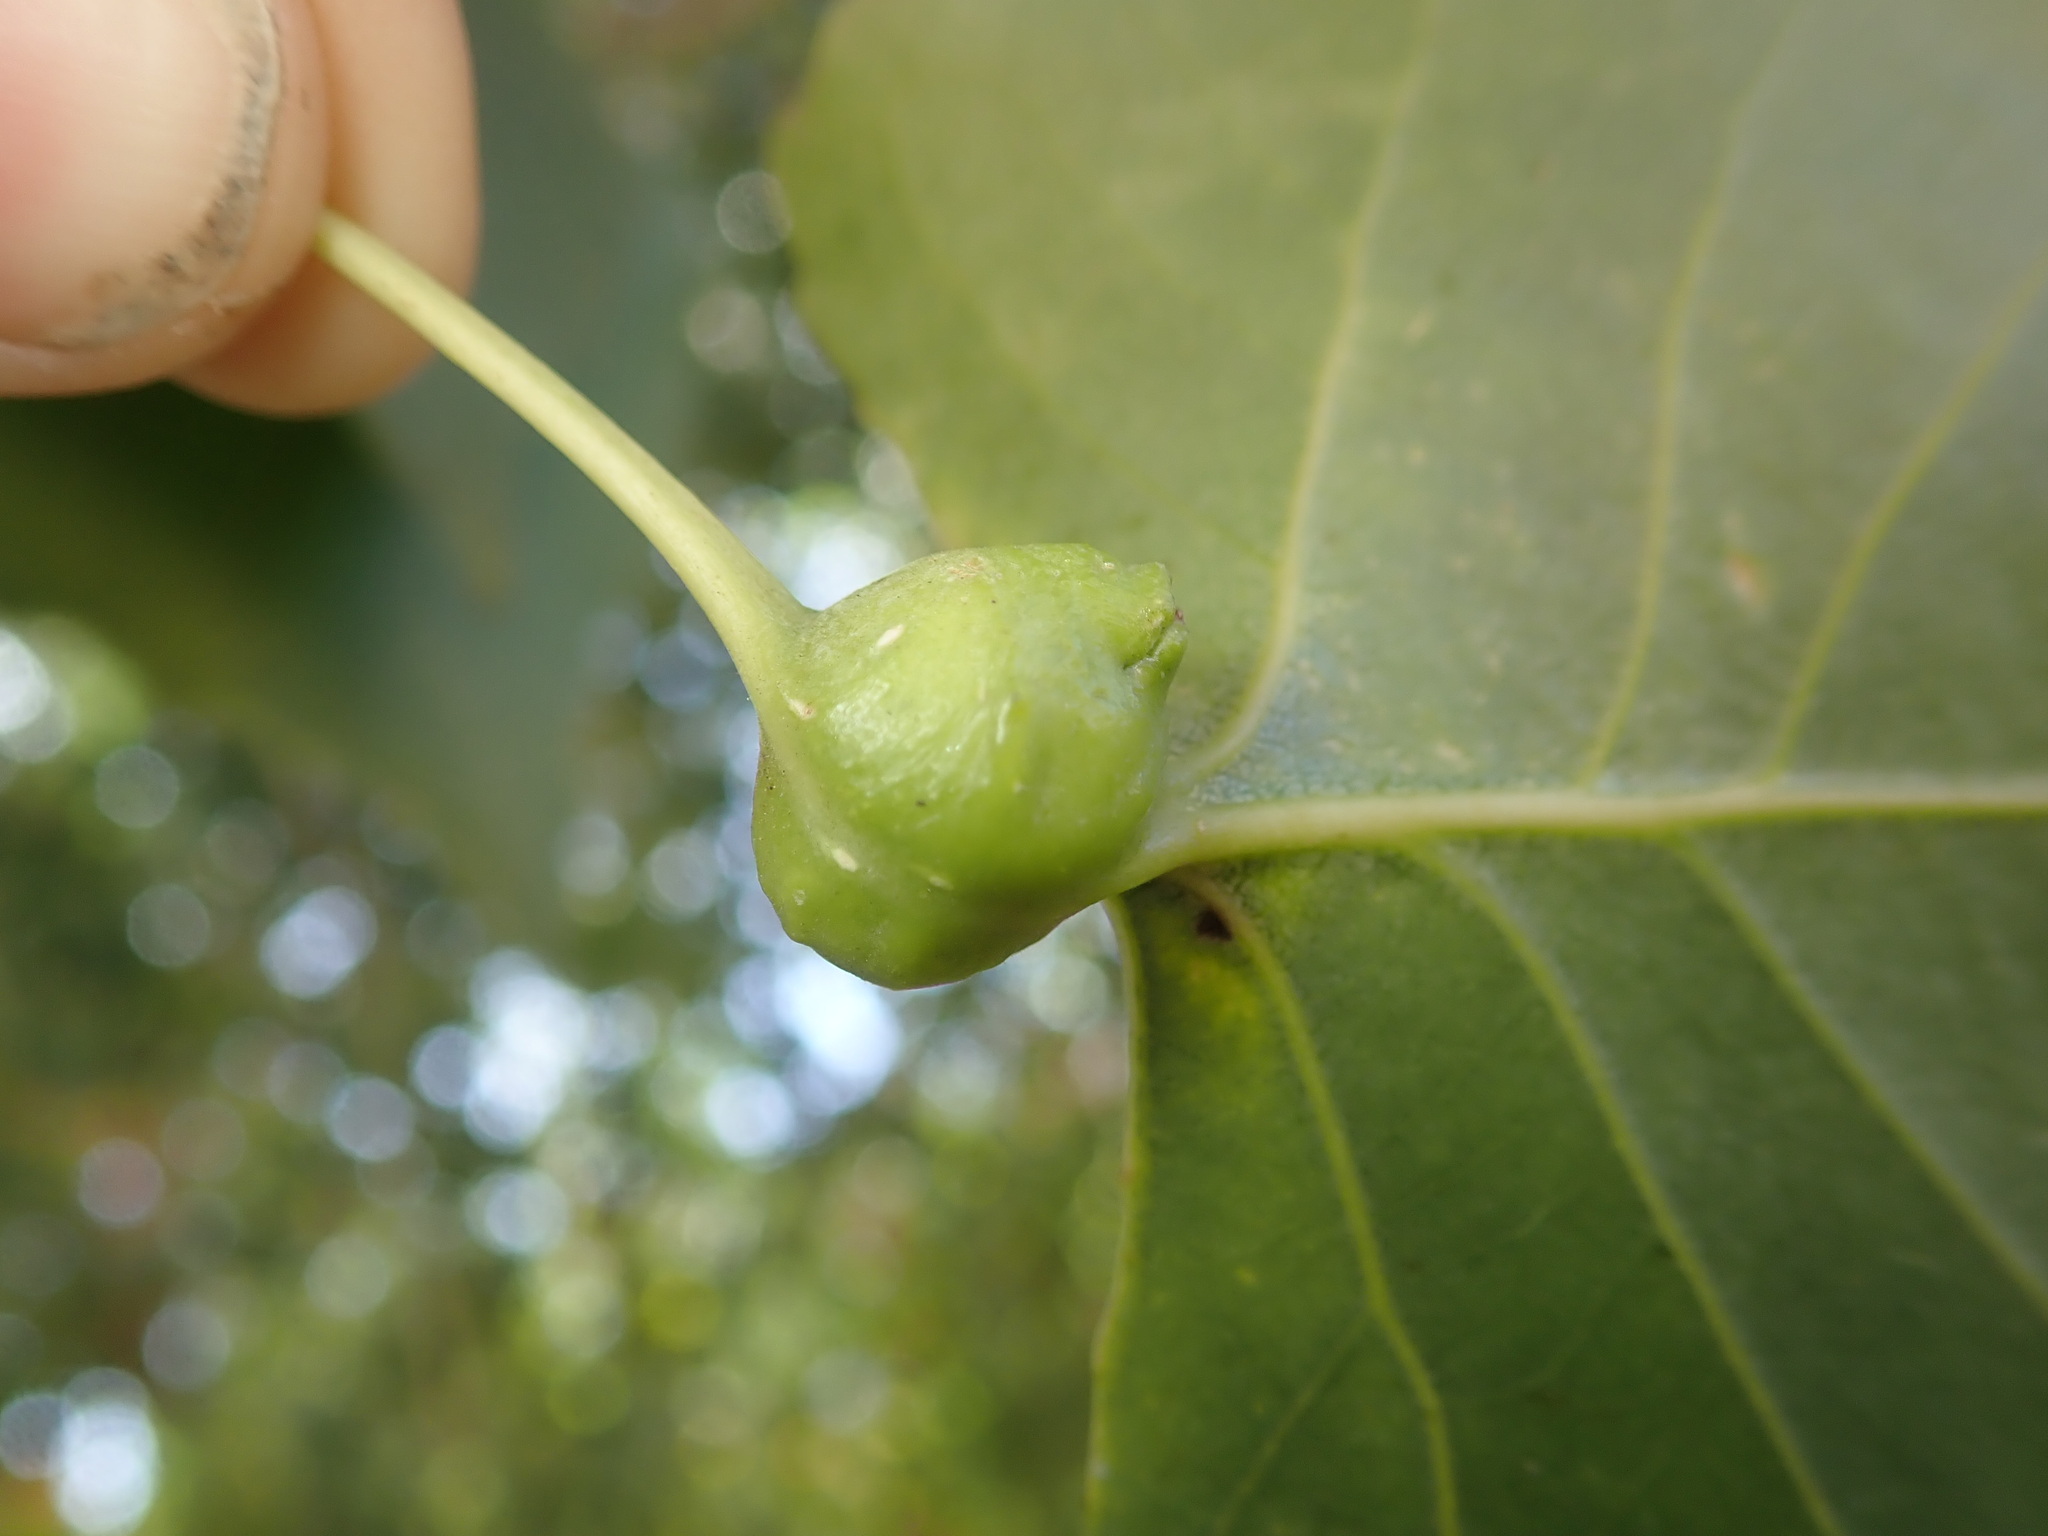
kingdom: Animalia
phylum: Arthropoda
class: Insecta
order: Hemiptera
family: Aphididae
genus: Pemphigus
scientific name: Pemphigus obesinymphae
